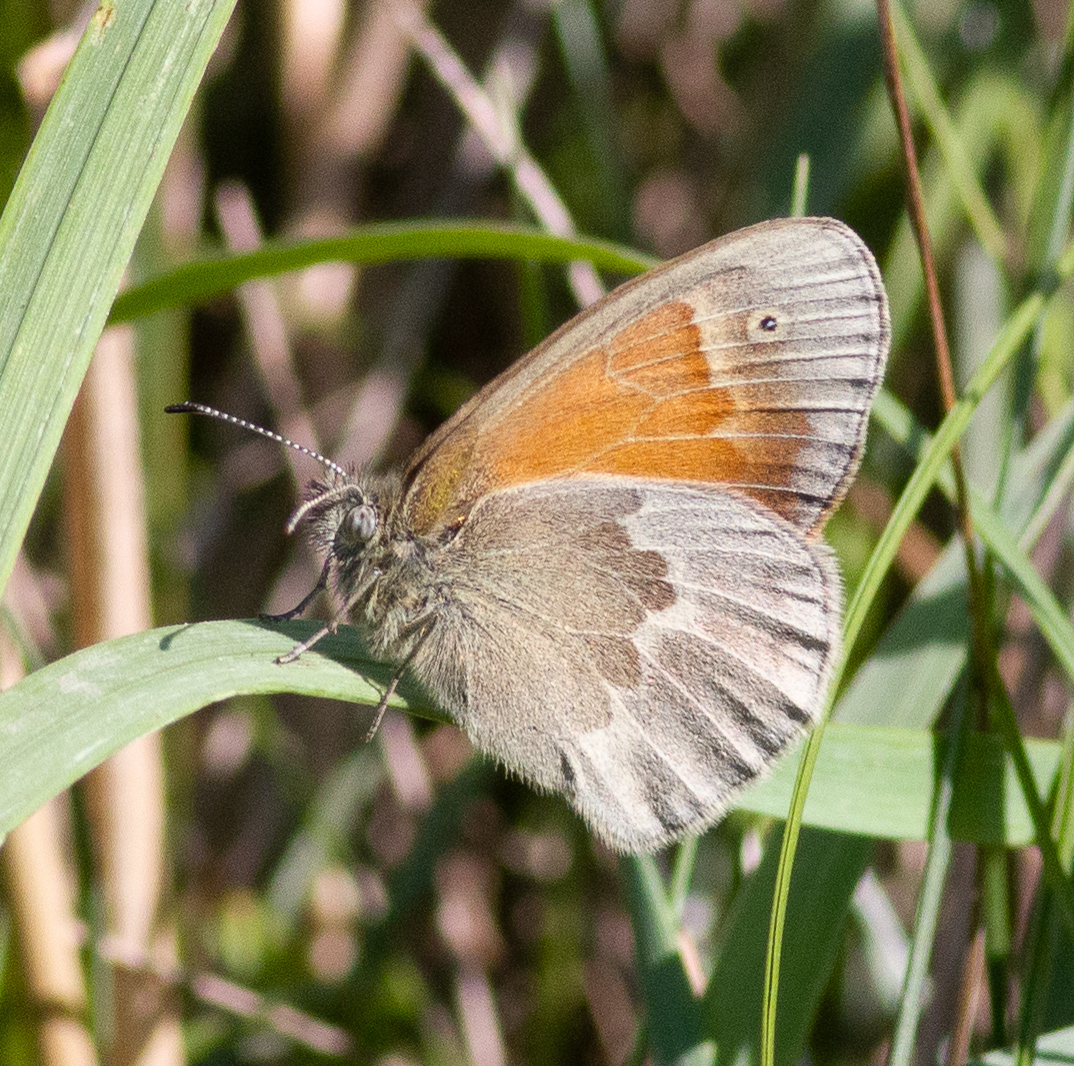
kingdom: Animalia
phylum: Arthropoda
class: Insecta
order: Lepidoptera
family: Nymphalidae
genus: Coenonympha
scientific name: Coenonympha california
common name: Common ringlet
